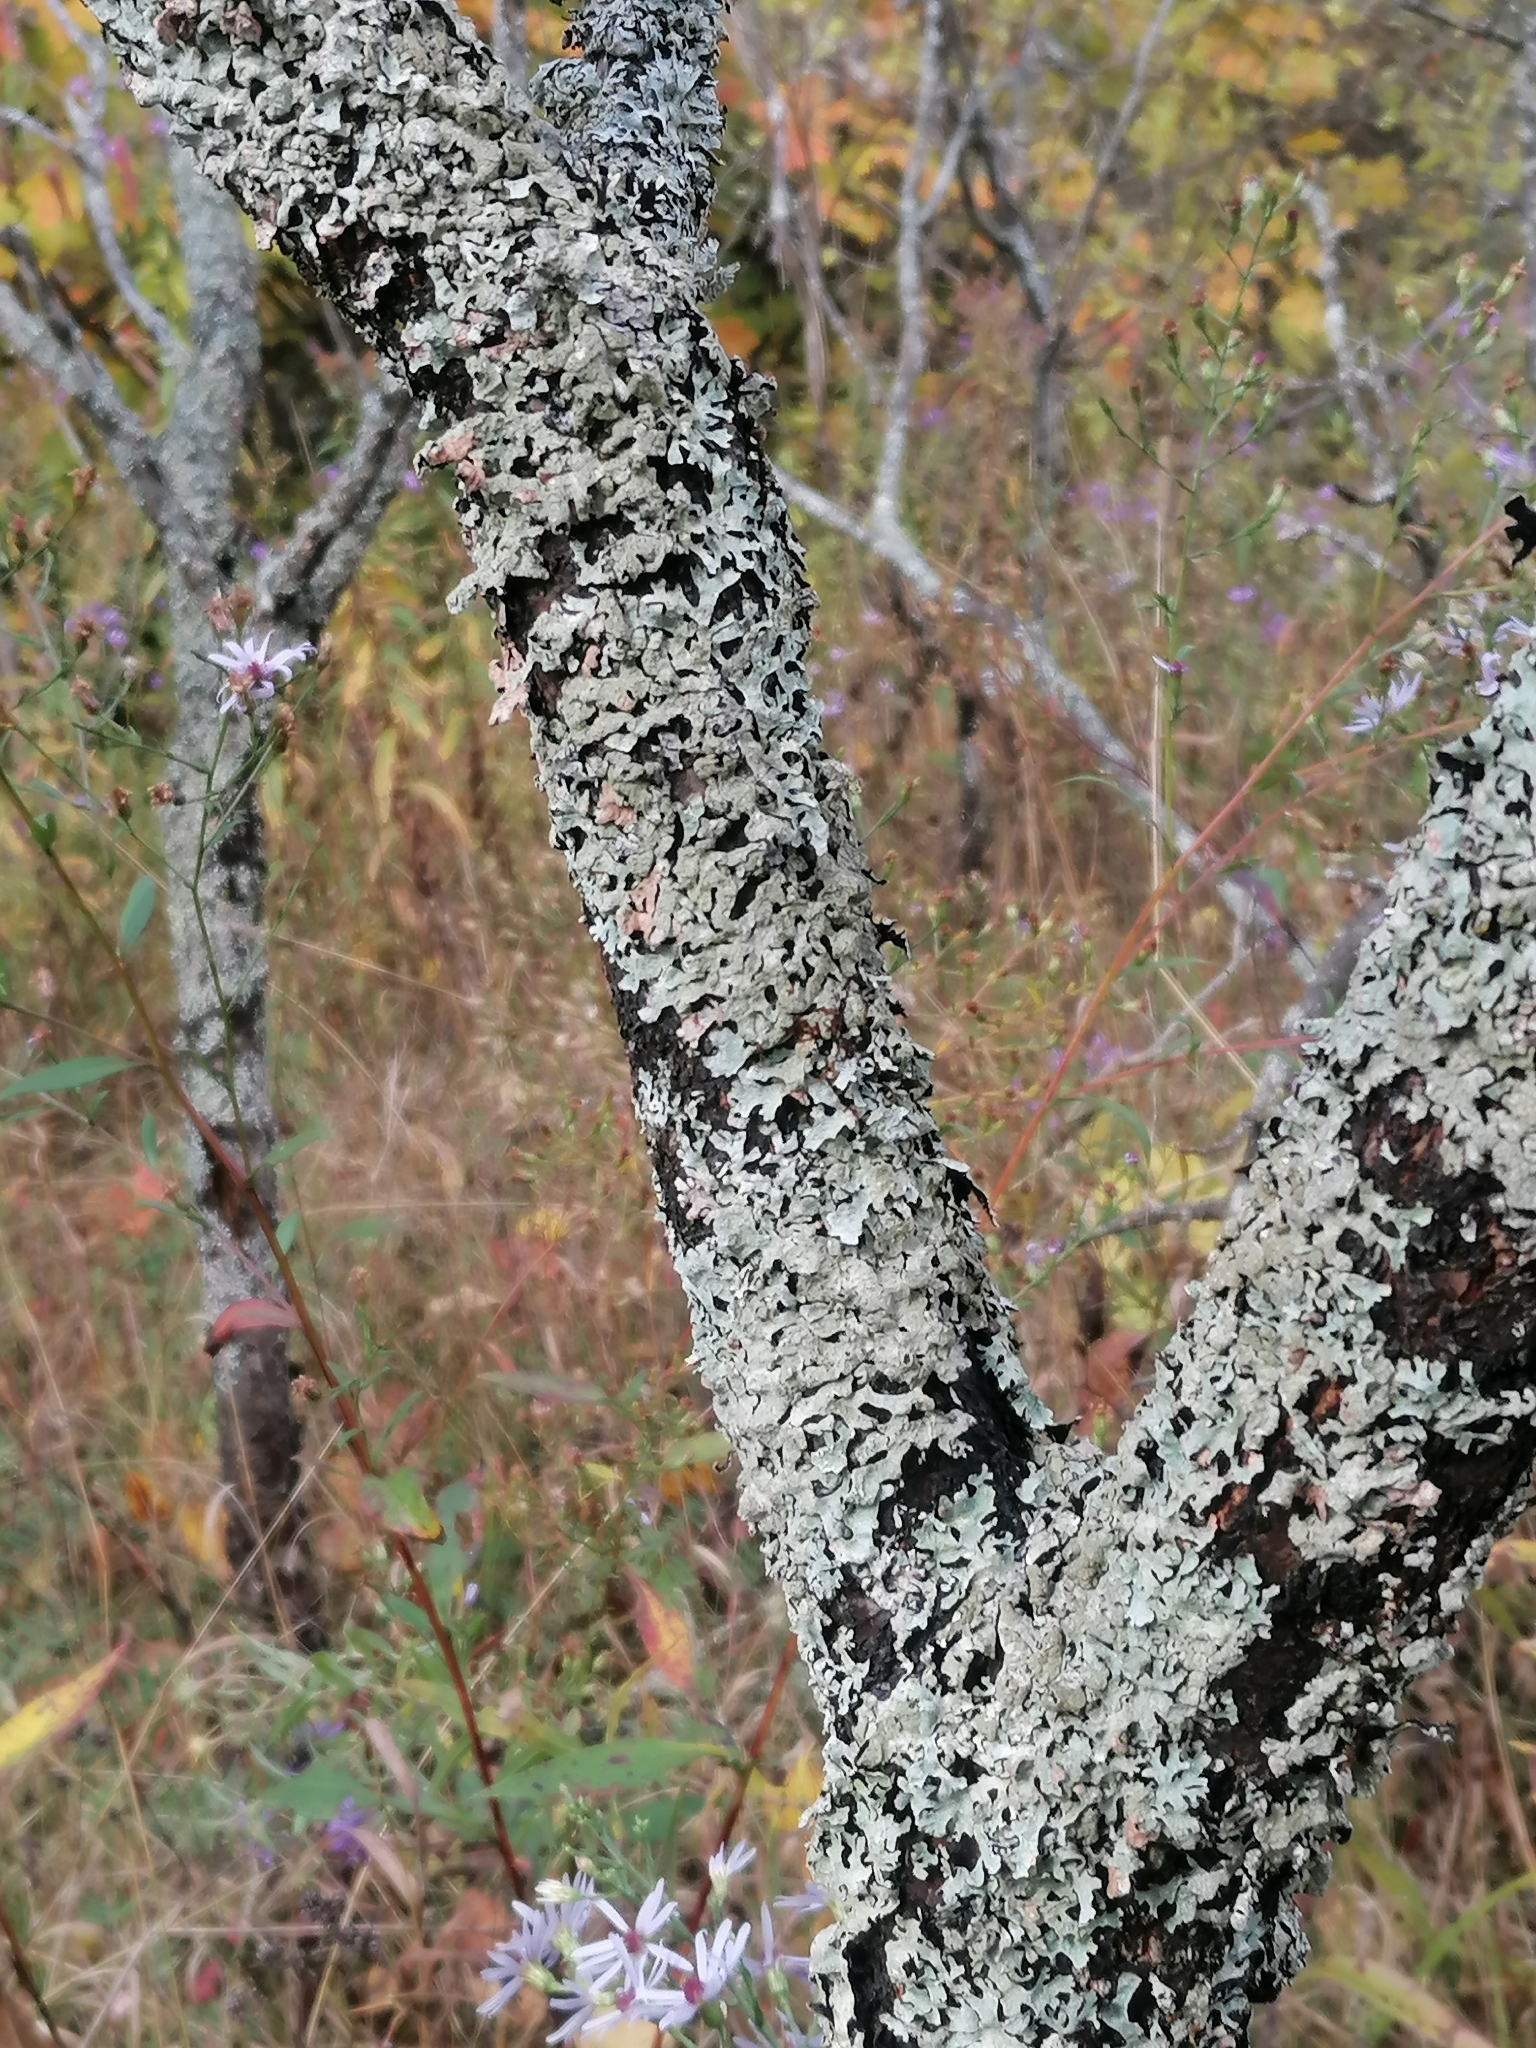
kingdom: Fungi
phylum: Ascomycota
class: Lecanoromycetes
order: Lecanorales
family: Parmeliaceae
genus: Parmelia
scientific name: Parmelia sulcata
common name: Netted shield lichen
